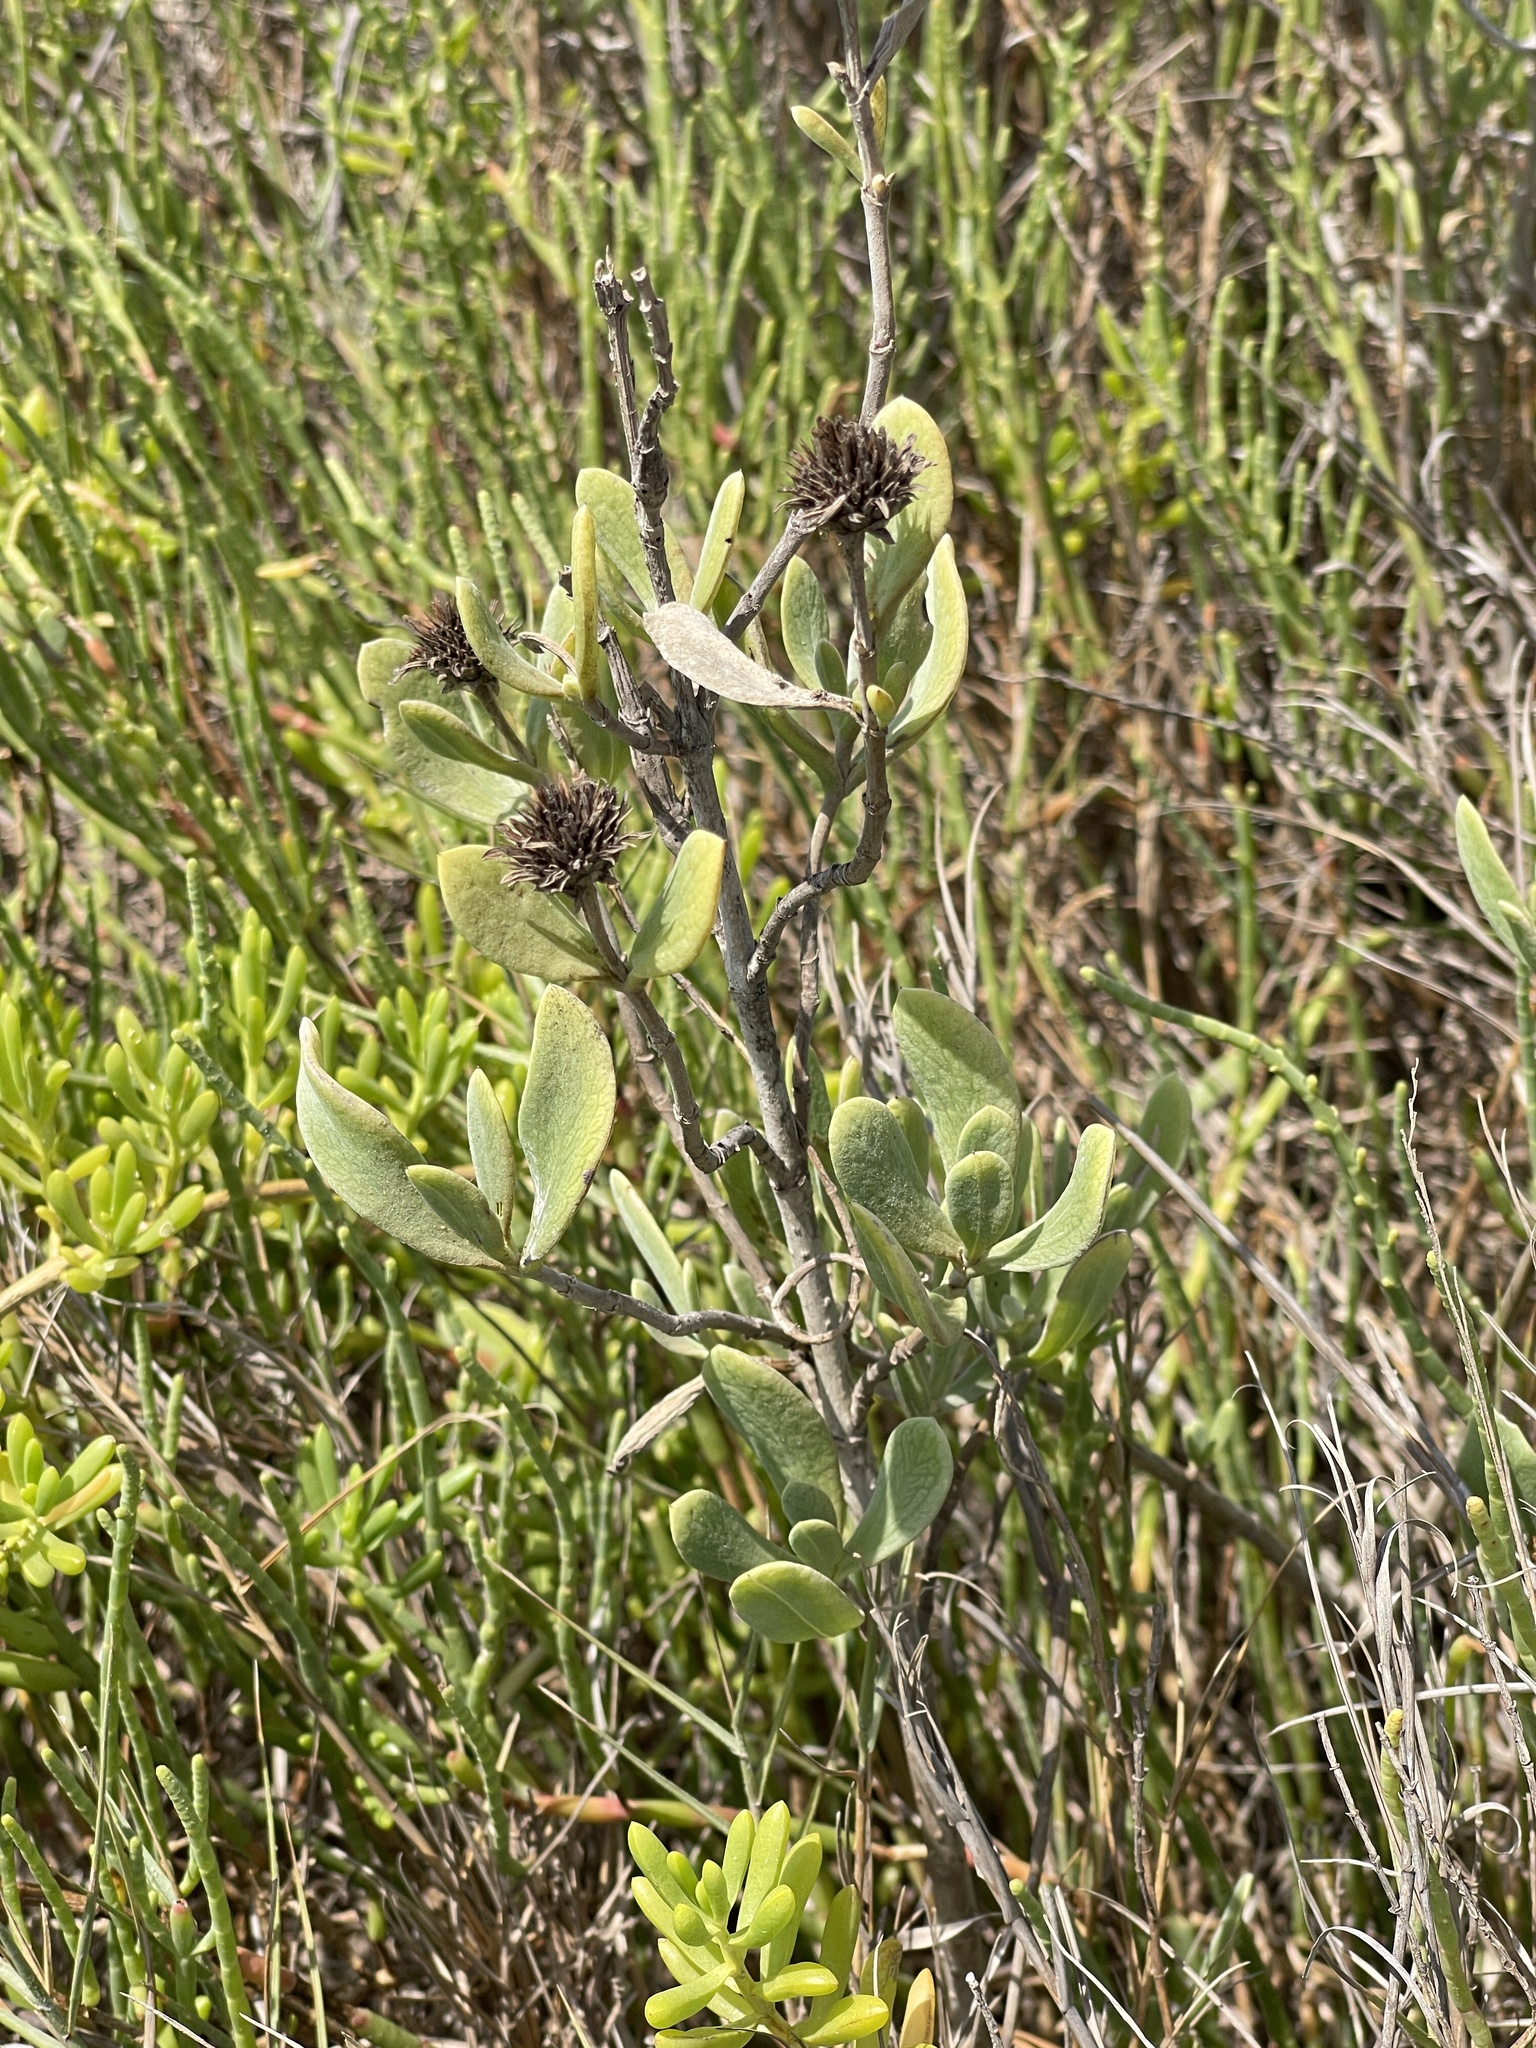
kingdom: Plantae
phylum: Tracheophyta
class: Magnoliopsida
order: Asterales
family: Asteraceae
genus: Borrichia
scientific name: Borrichia frutescens
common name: Sea oxeye
